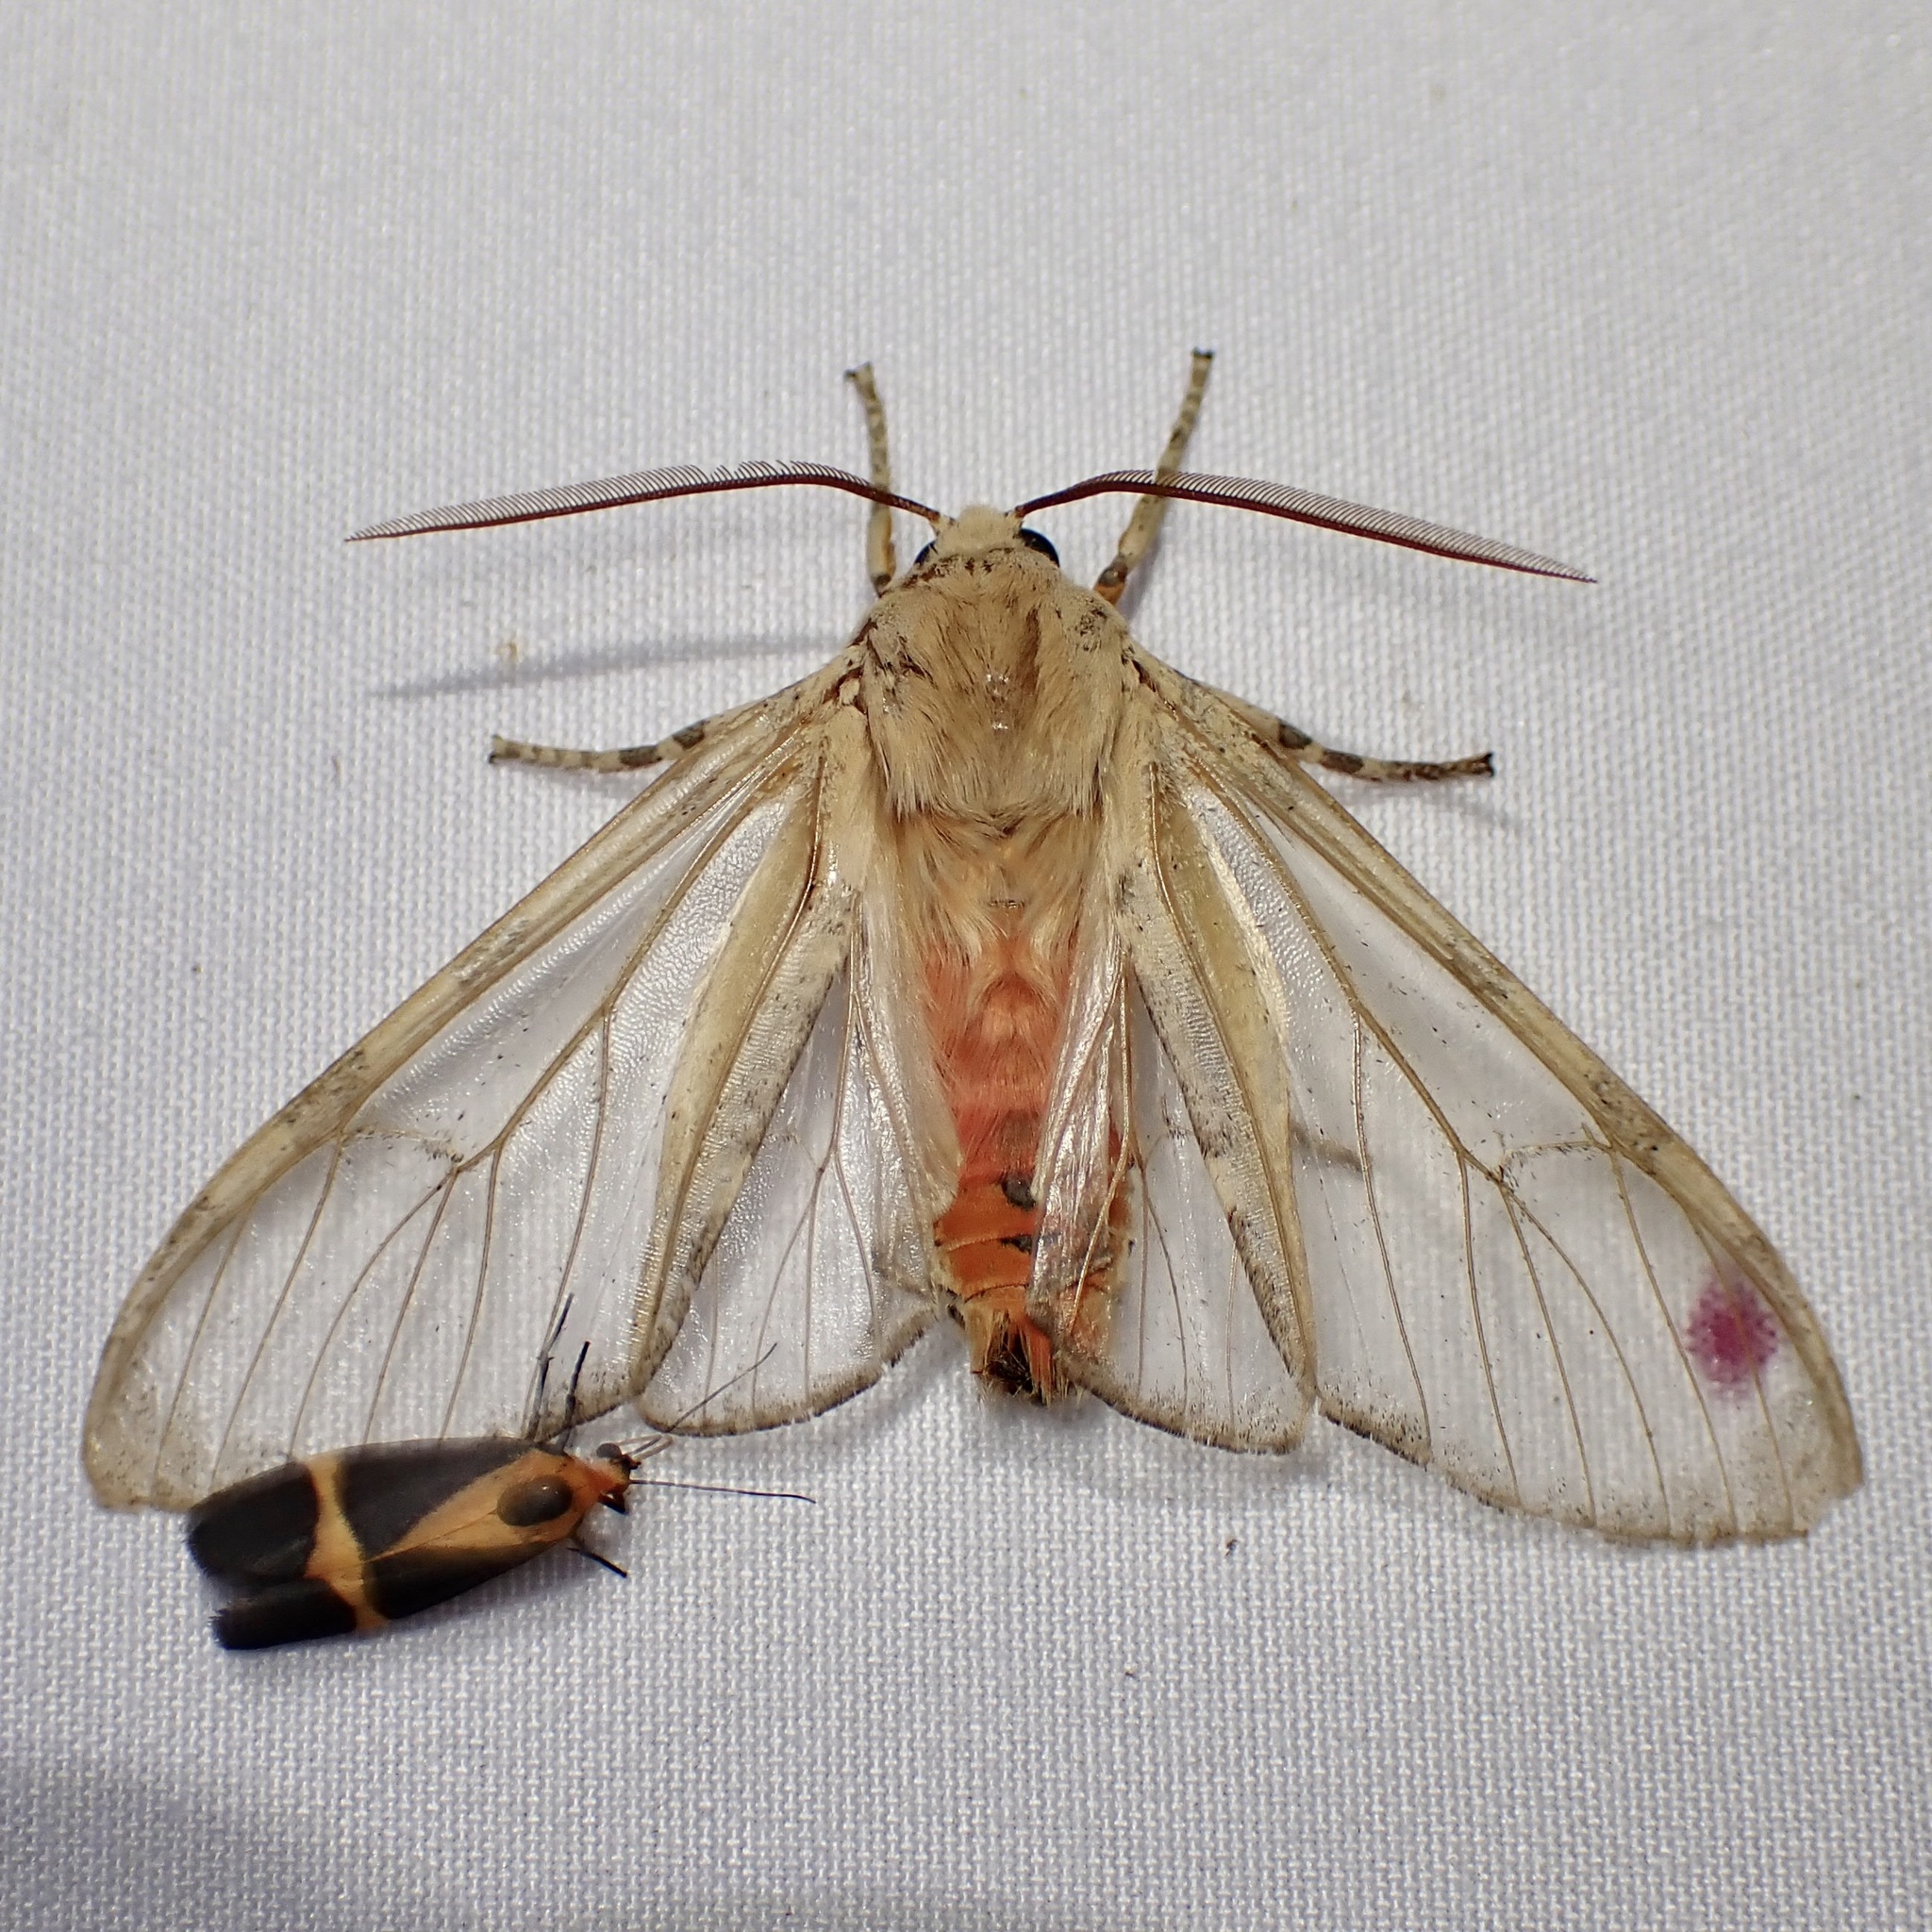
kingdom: Animalia
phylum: Arthropoda
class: Insecta
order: Lepidoptera
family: Erebidae
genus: Hemihyalea
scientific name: Hemihyalea edwardsii
